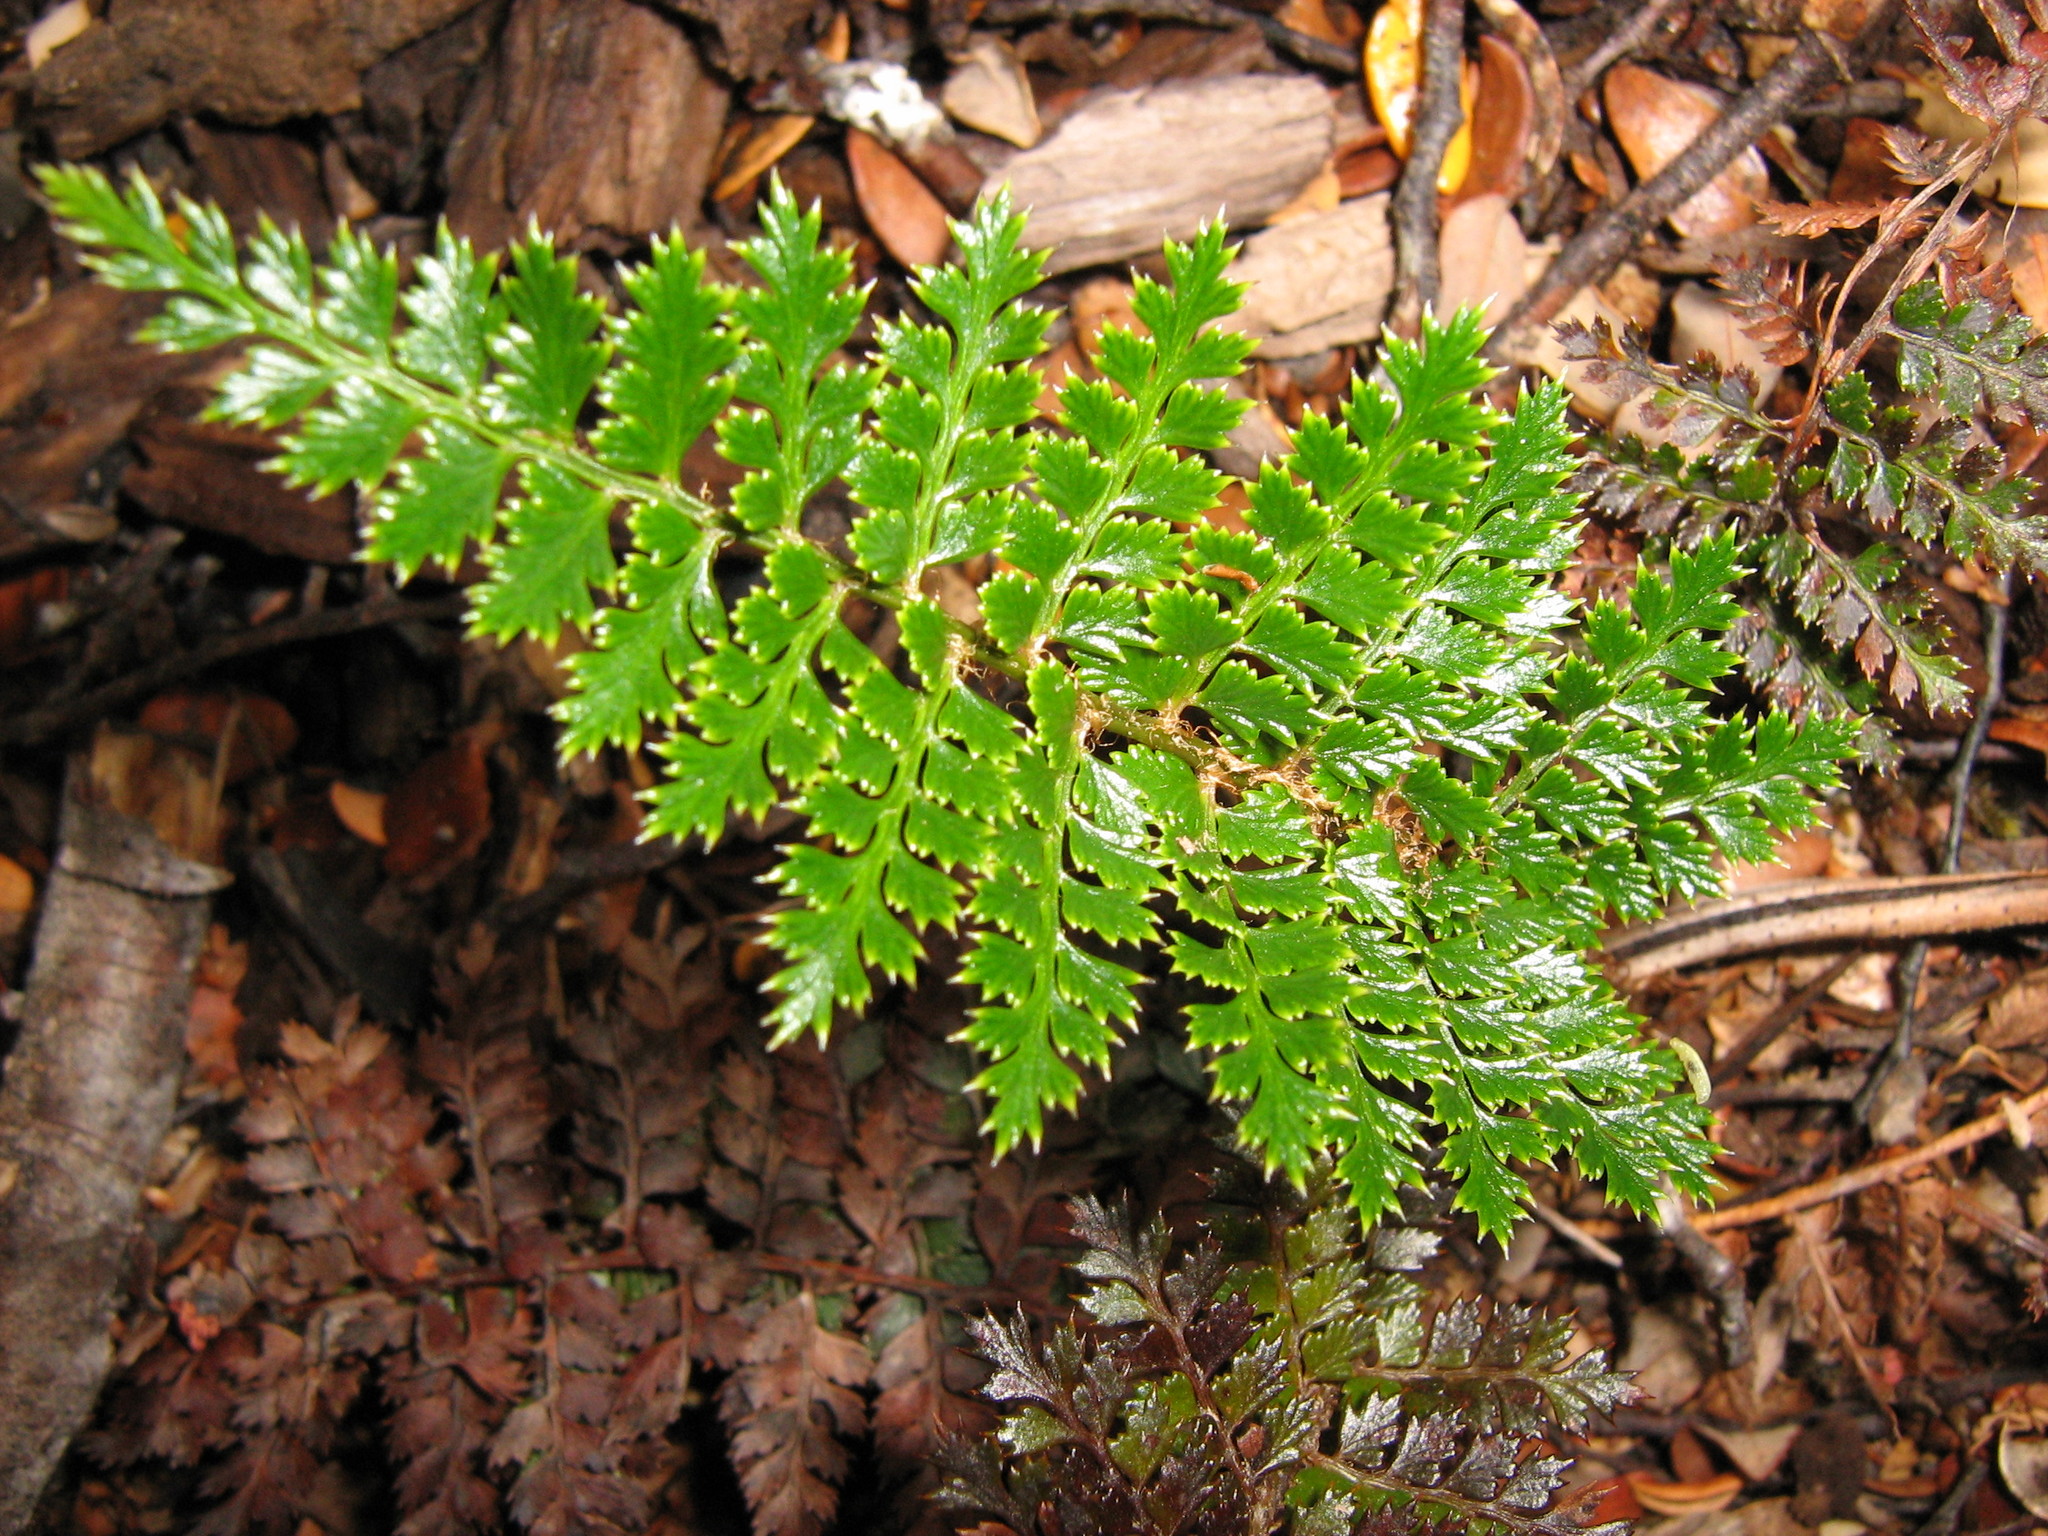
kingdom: Plantae
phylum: Tracheophyta
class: Polypodiopsida
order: Polypodiales
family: Dryopteridaceae
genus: Polystichum
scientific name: Polystichum vestitum
